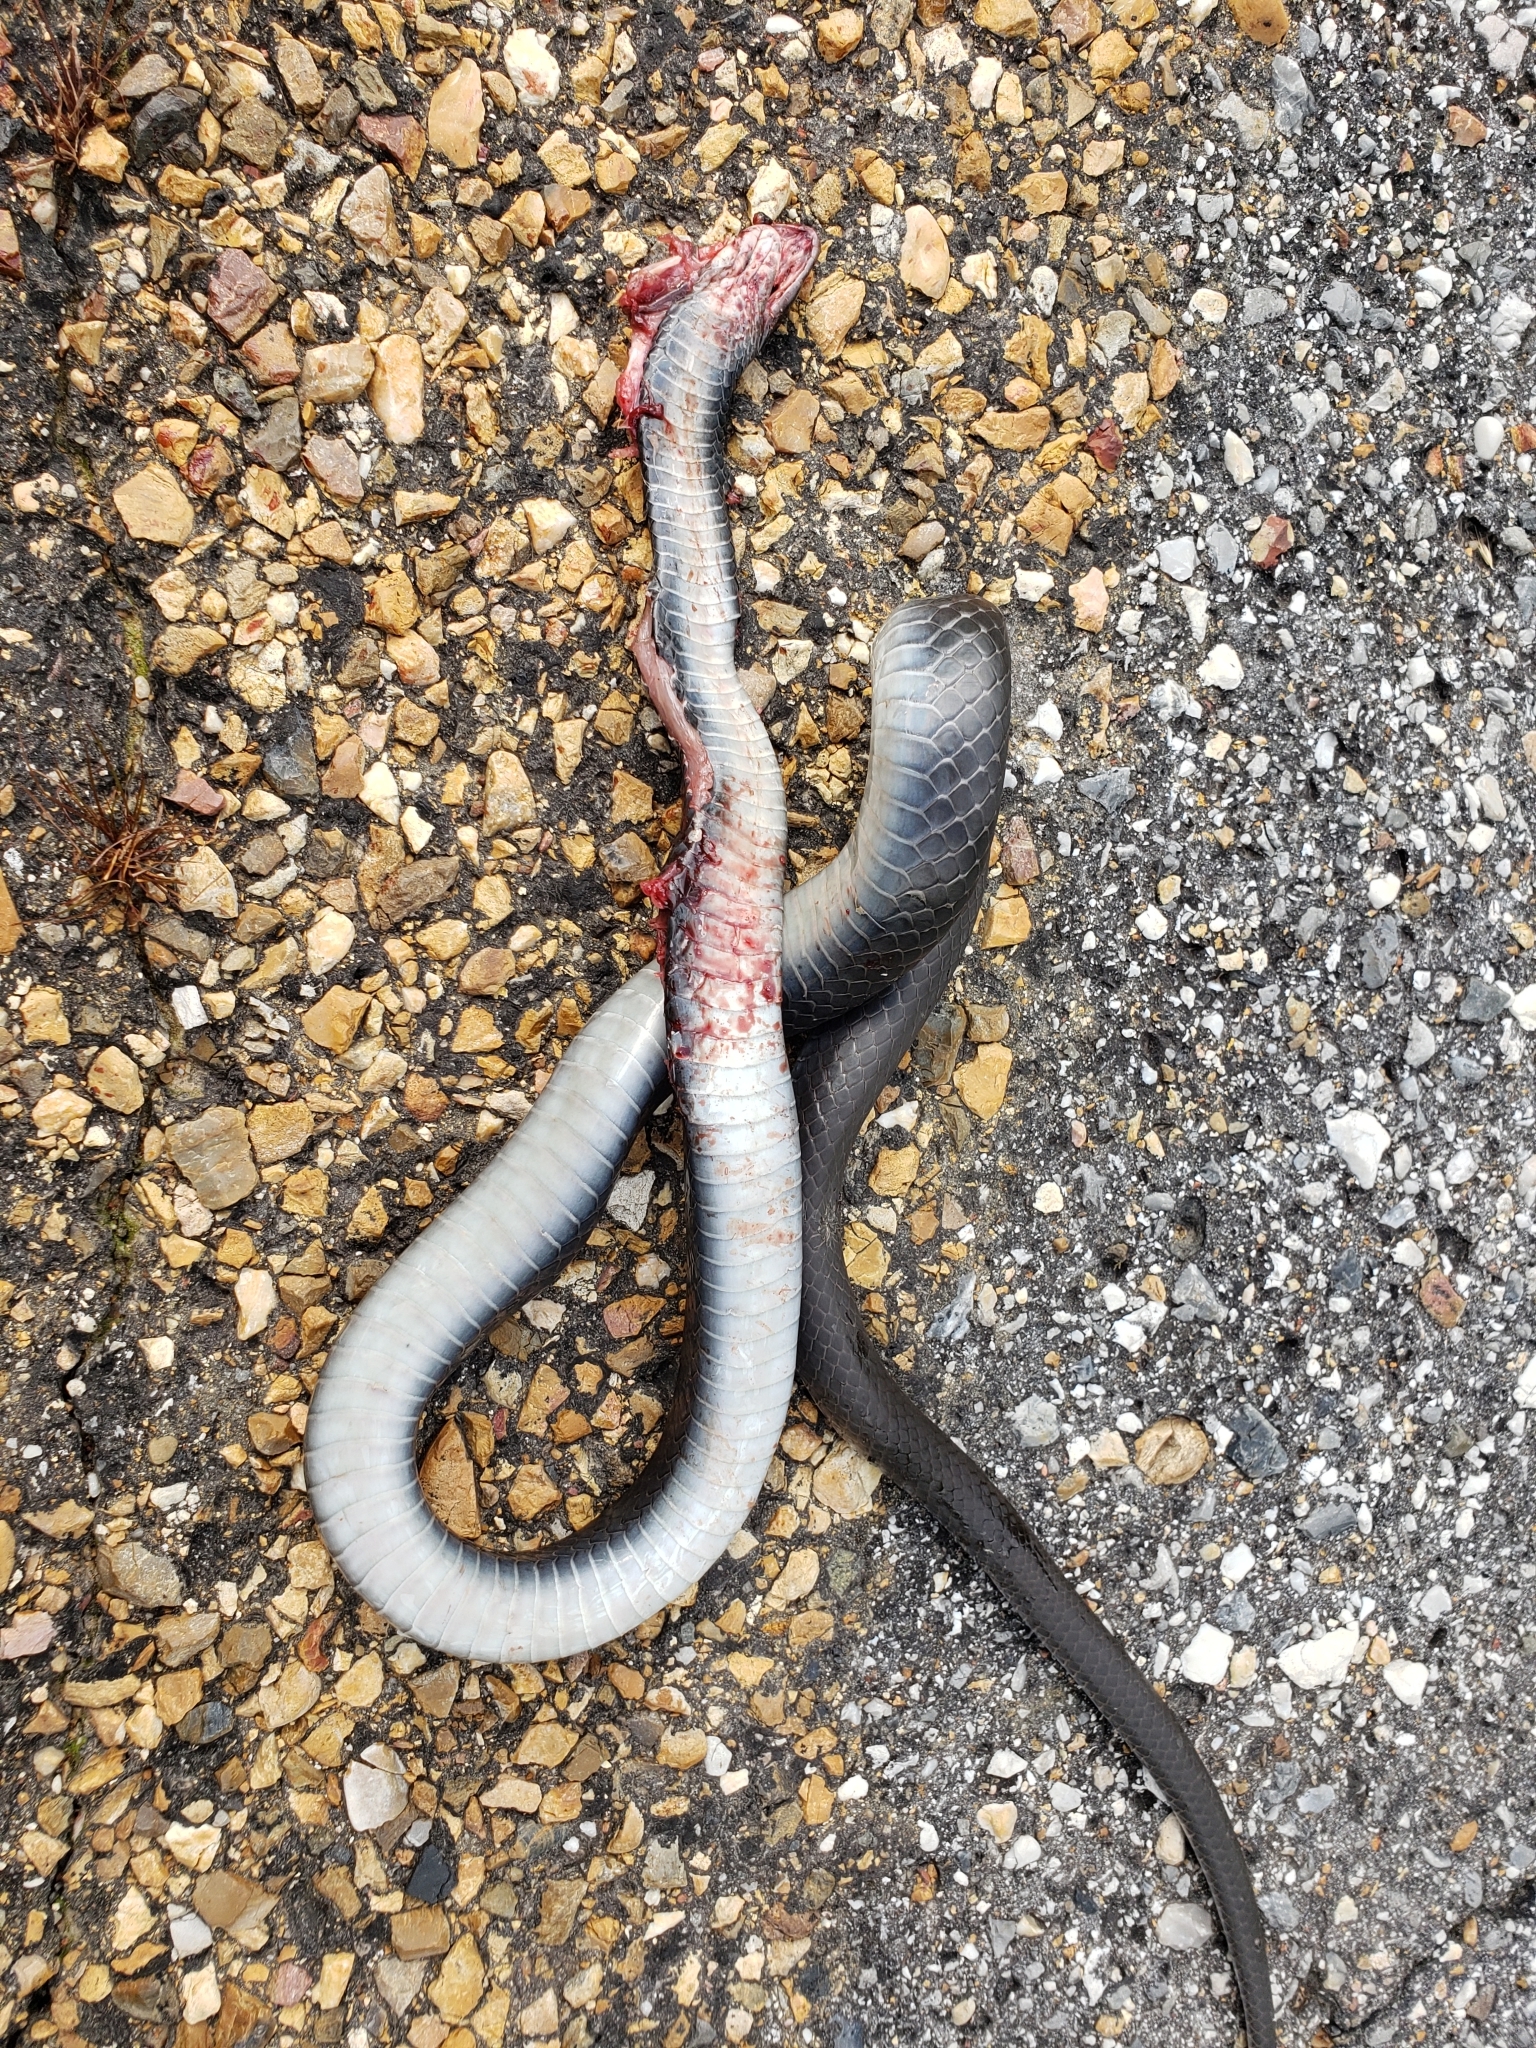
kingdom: Animalia
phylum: Chordata
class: Squamata
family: Colubridae
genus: Coluber
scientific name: Coluber constrictor
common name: Eastern racer
